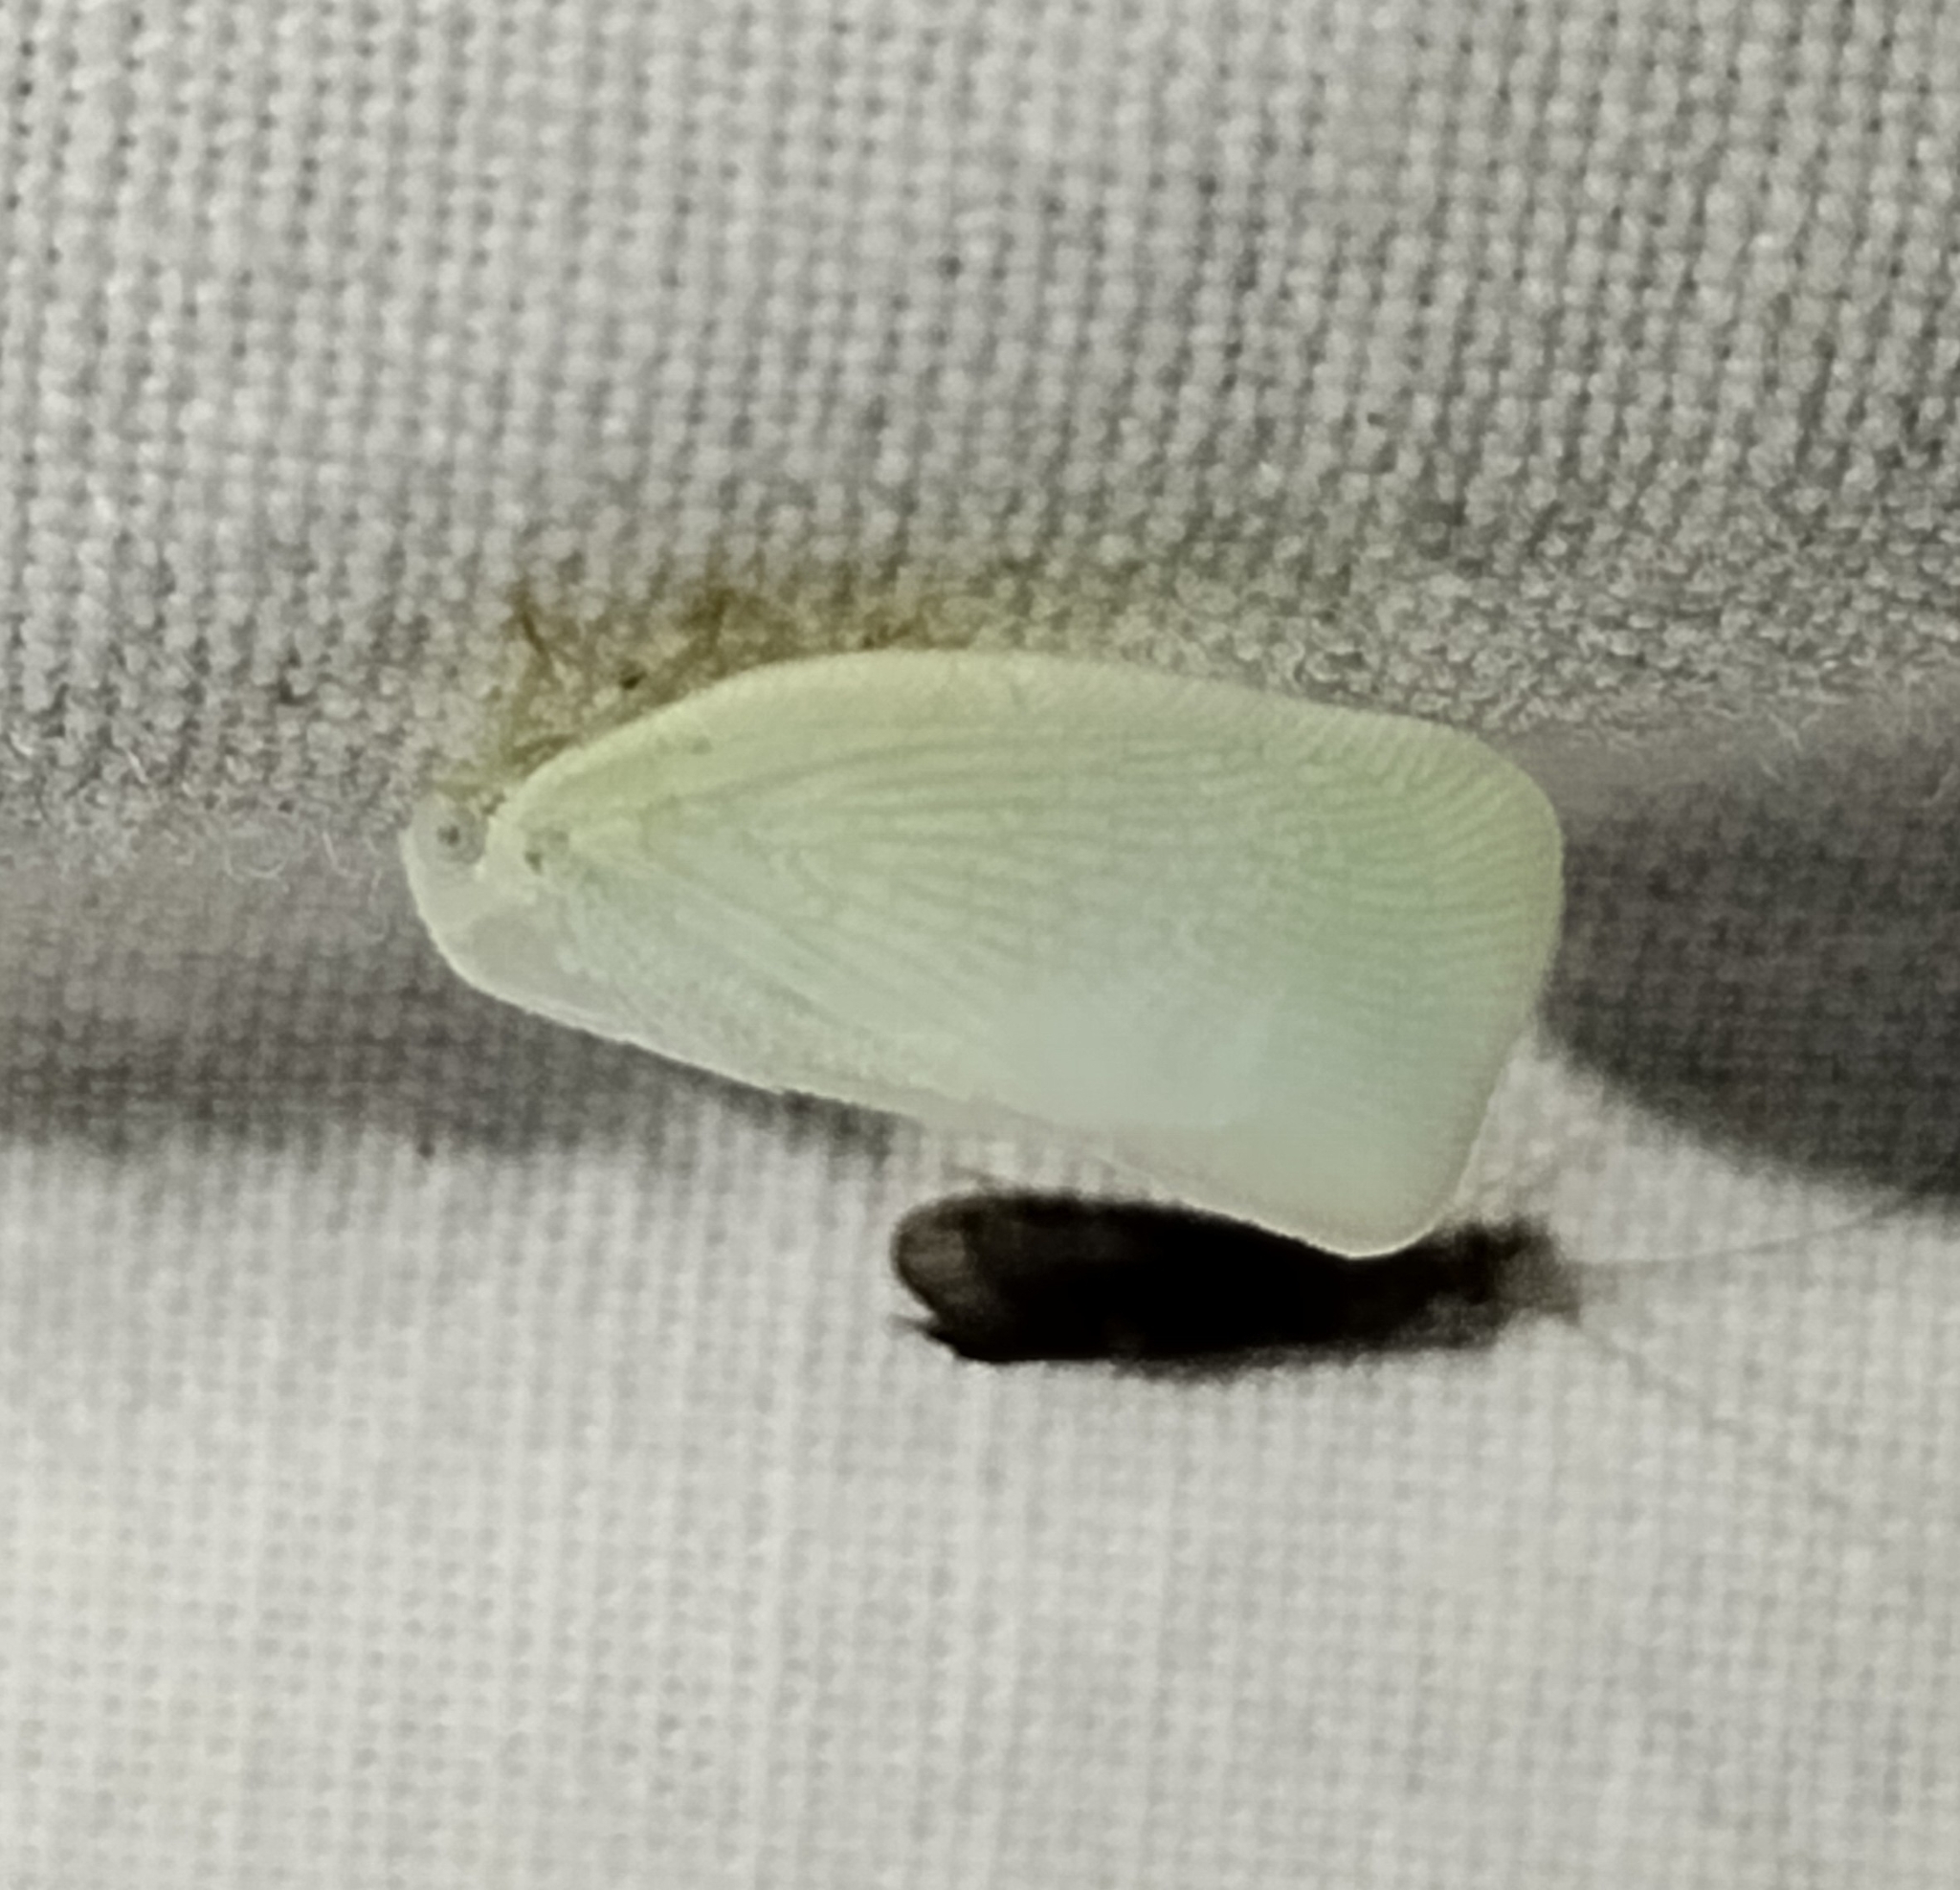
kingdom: Animalia
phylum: Arthropoda
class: Insecta
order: Hemiptera
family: Flatidae
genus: Flatormenis
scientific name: Flatormenis proxima
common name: Northern flatid planthopper
